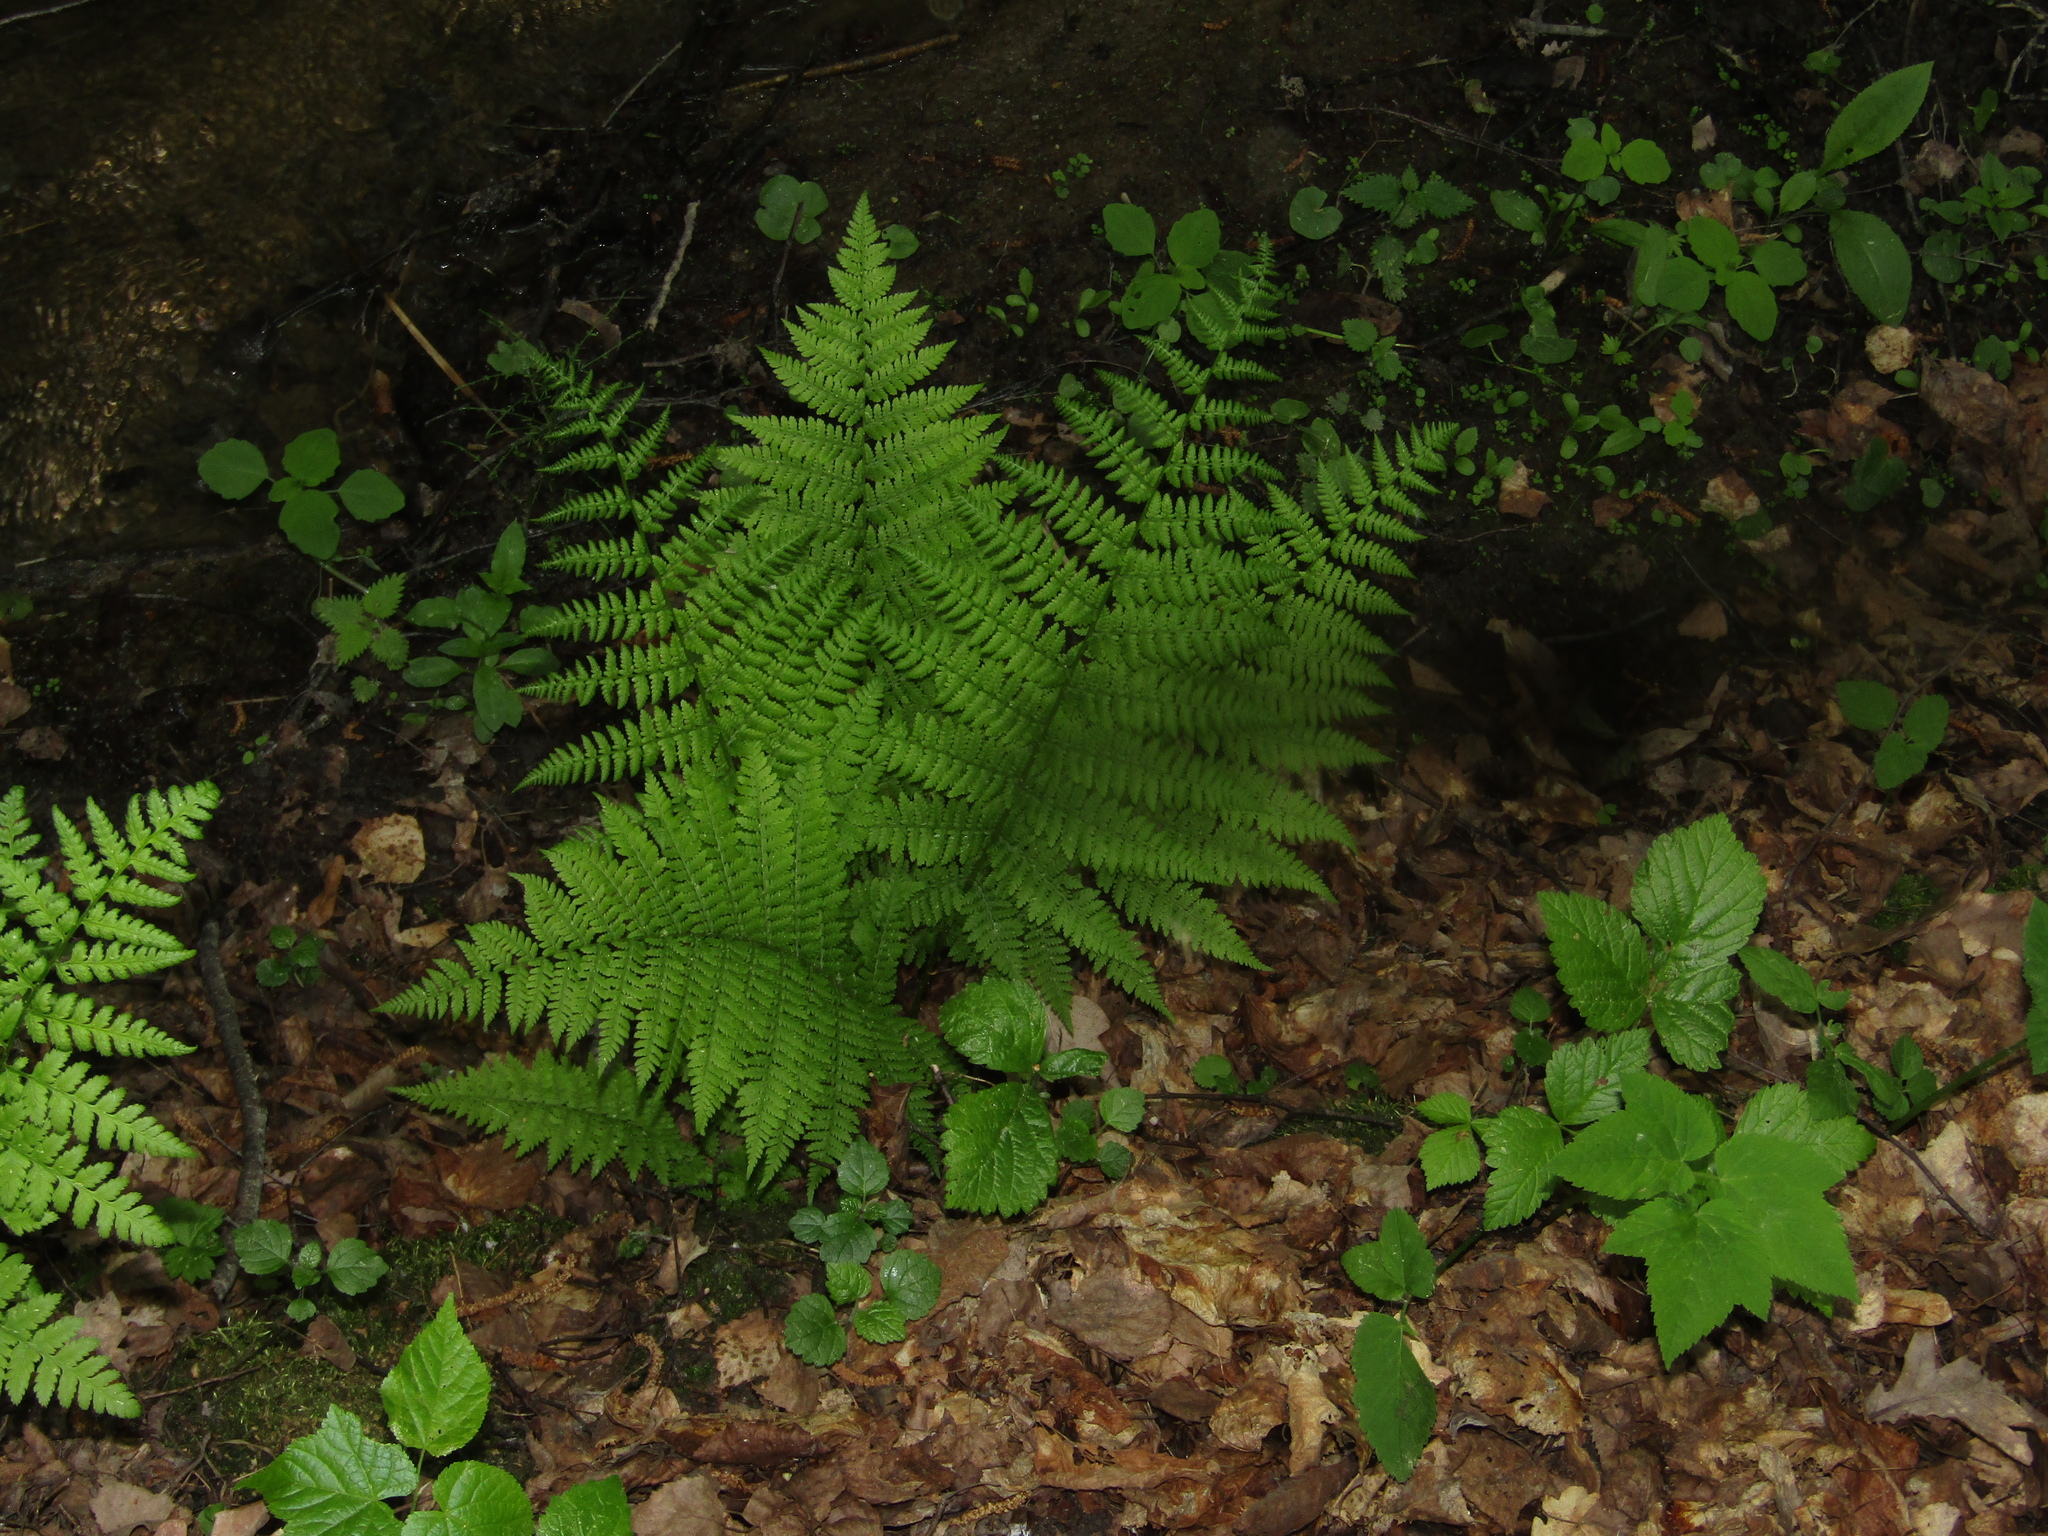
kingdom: Plantae
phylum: Tracheophyta
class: Polypodiopsida
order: Polypodiales
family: Athyriaceae
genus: Athyrium
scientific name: Athyrium filix-femina
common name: Lady fern
